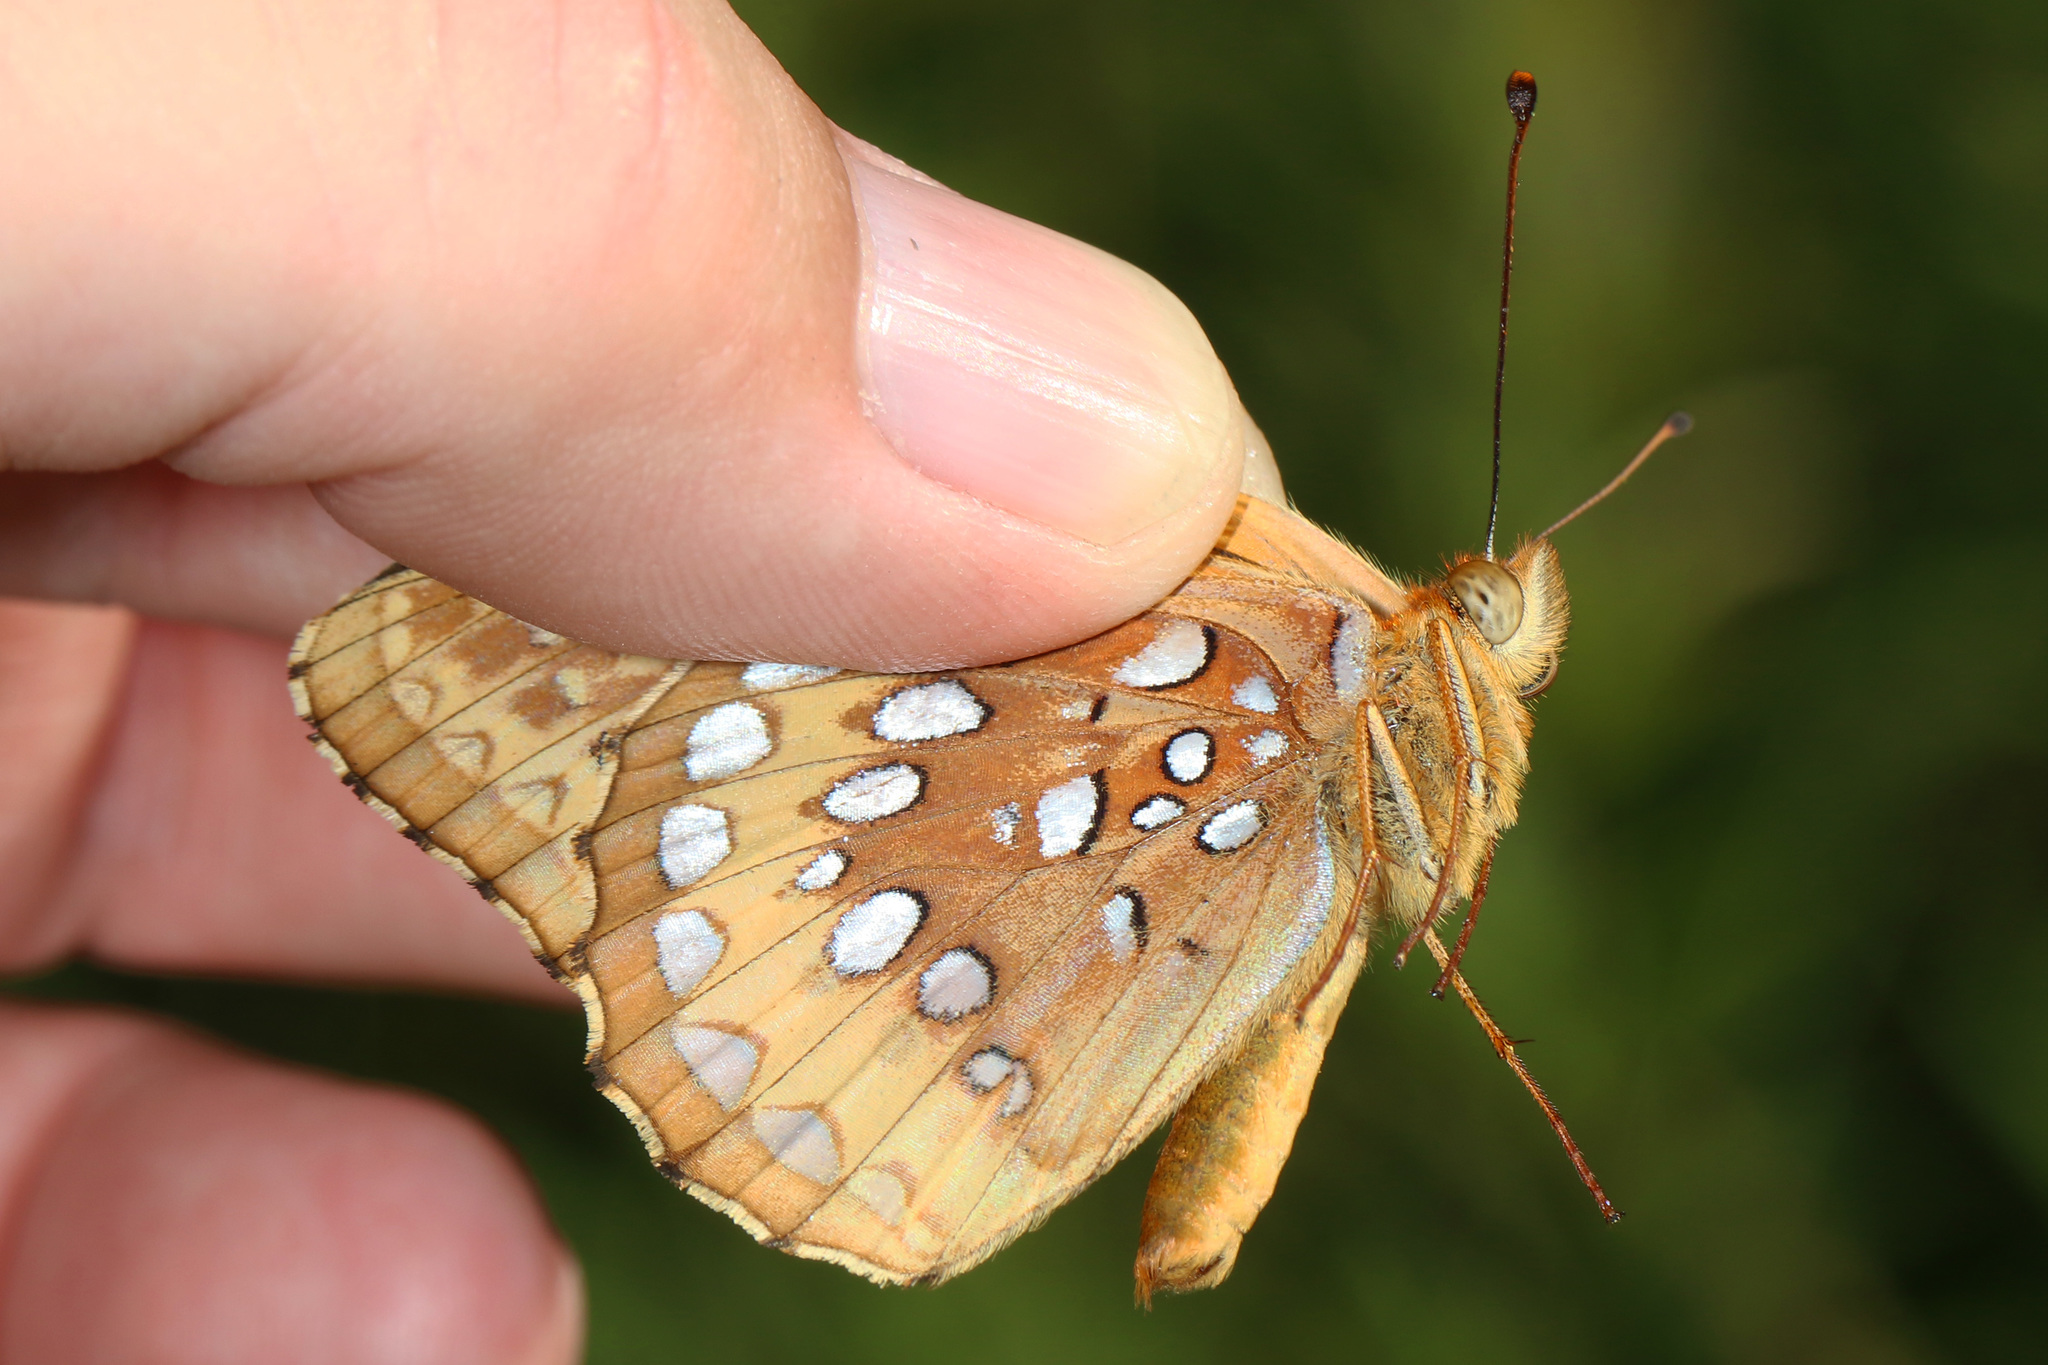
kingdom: Animalia
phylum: Arthropoda
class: Insecta
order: Lepidoptera
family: Nymphalidae
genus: Speyeria
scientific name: Speyeria cybele
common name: Great spangled fritillary
